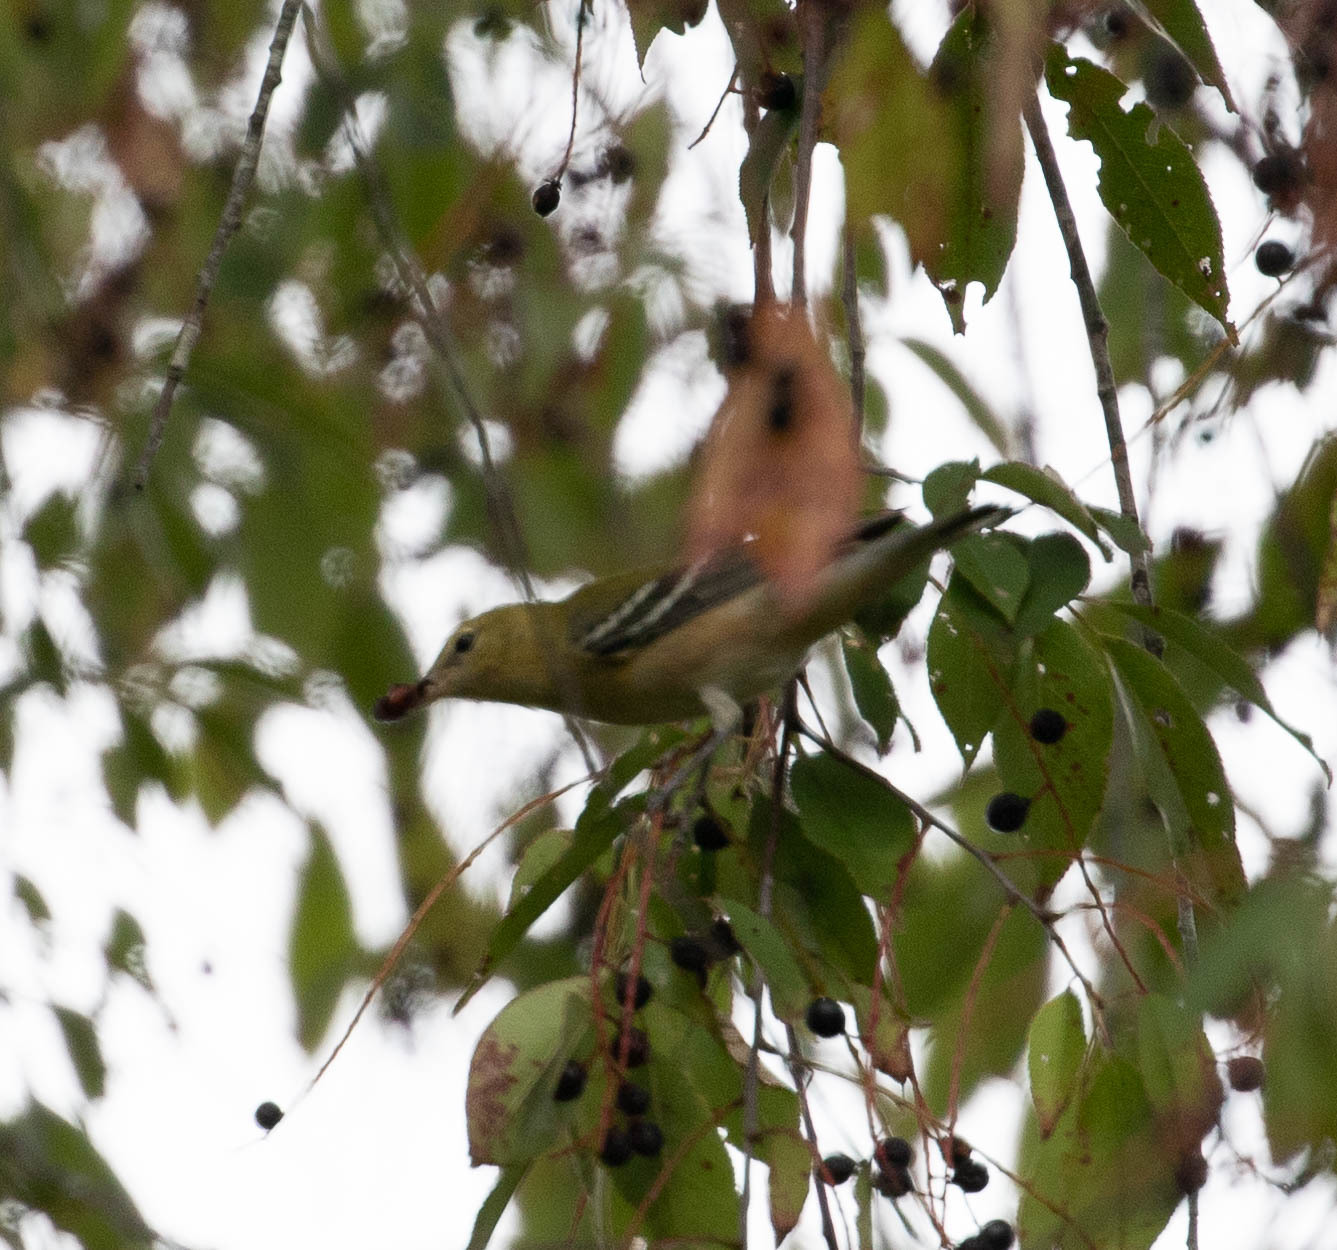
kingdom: Animalia
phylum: Chordata
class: Aves
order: Passeriformes
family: Parulidae
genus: Setophaga
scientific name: Setophaga castanea
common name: Bay-breasted warbler
